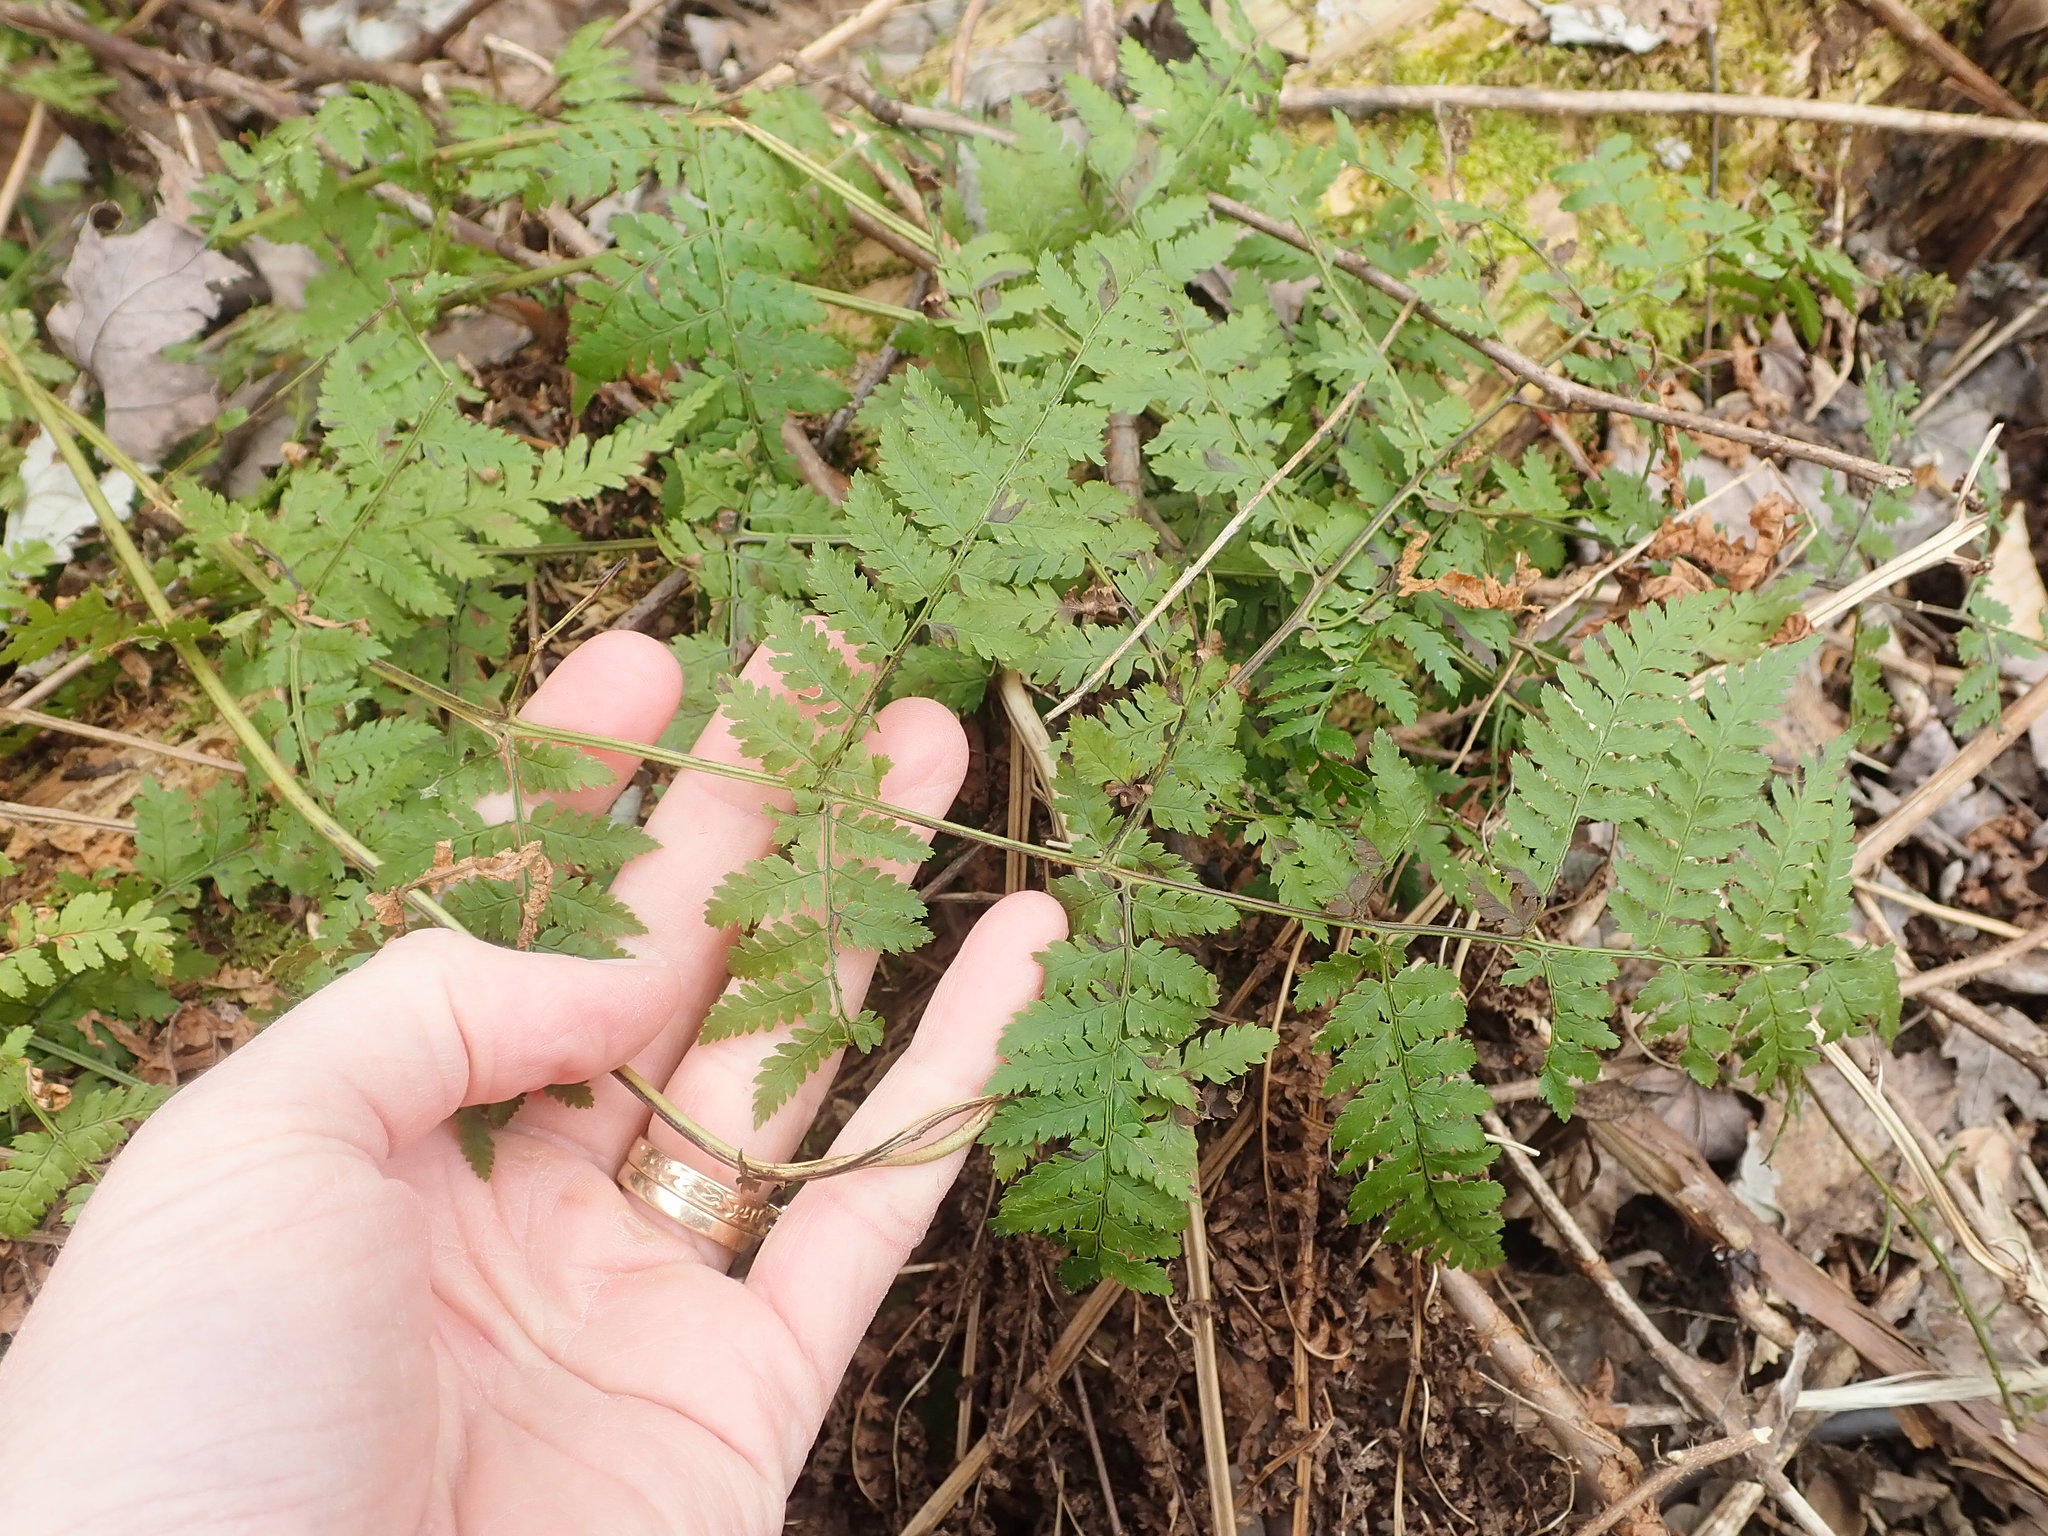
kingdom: Plantae
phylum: Tracheophyta
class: Polypodiopsida
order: Polypodiales
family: Dryopteridaceae
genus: Dryopteris
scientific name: Dryopteris intermedia
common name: Evergreen wood fern
